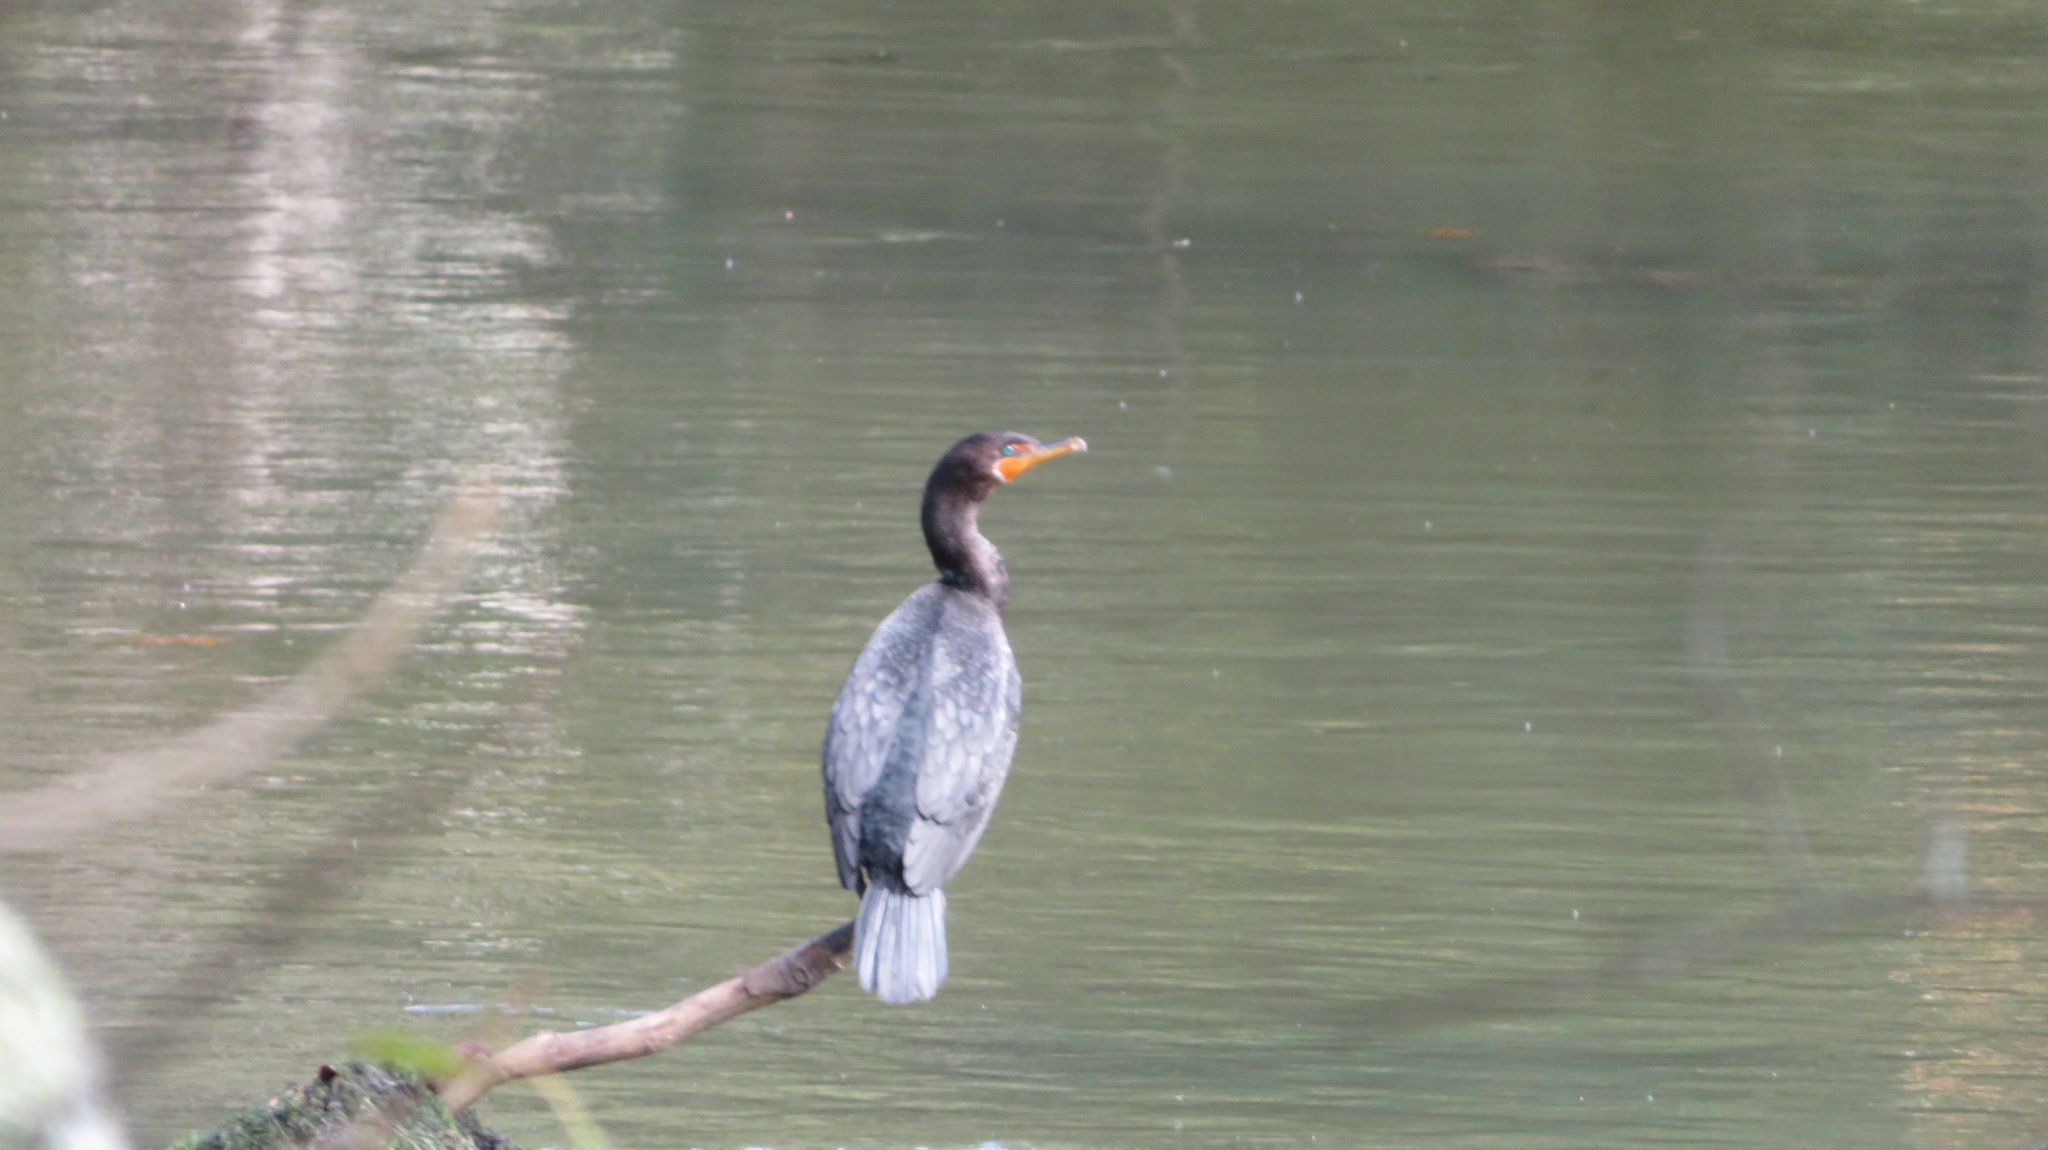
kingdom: Animalia
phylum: Chordata
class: Aves
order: Suliformes
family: Phalacrocoracidae
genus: Phalacrocorax
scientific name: Phalacrocorax auritus
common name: Double-crested cormorant
